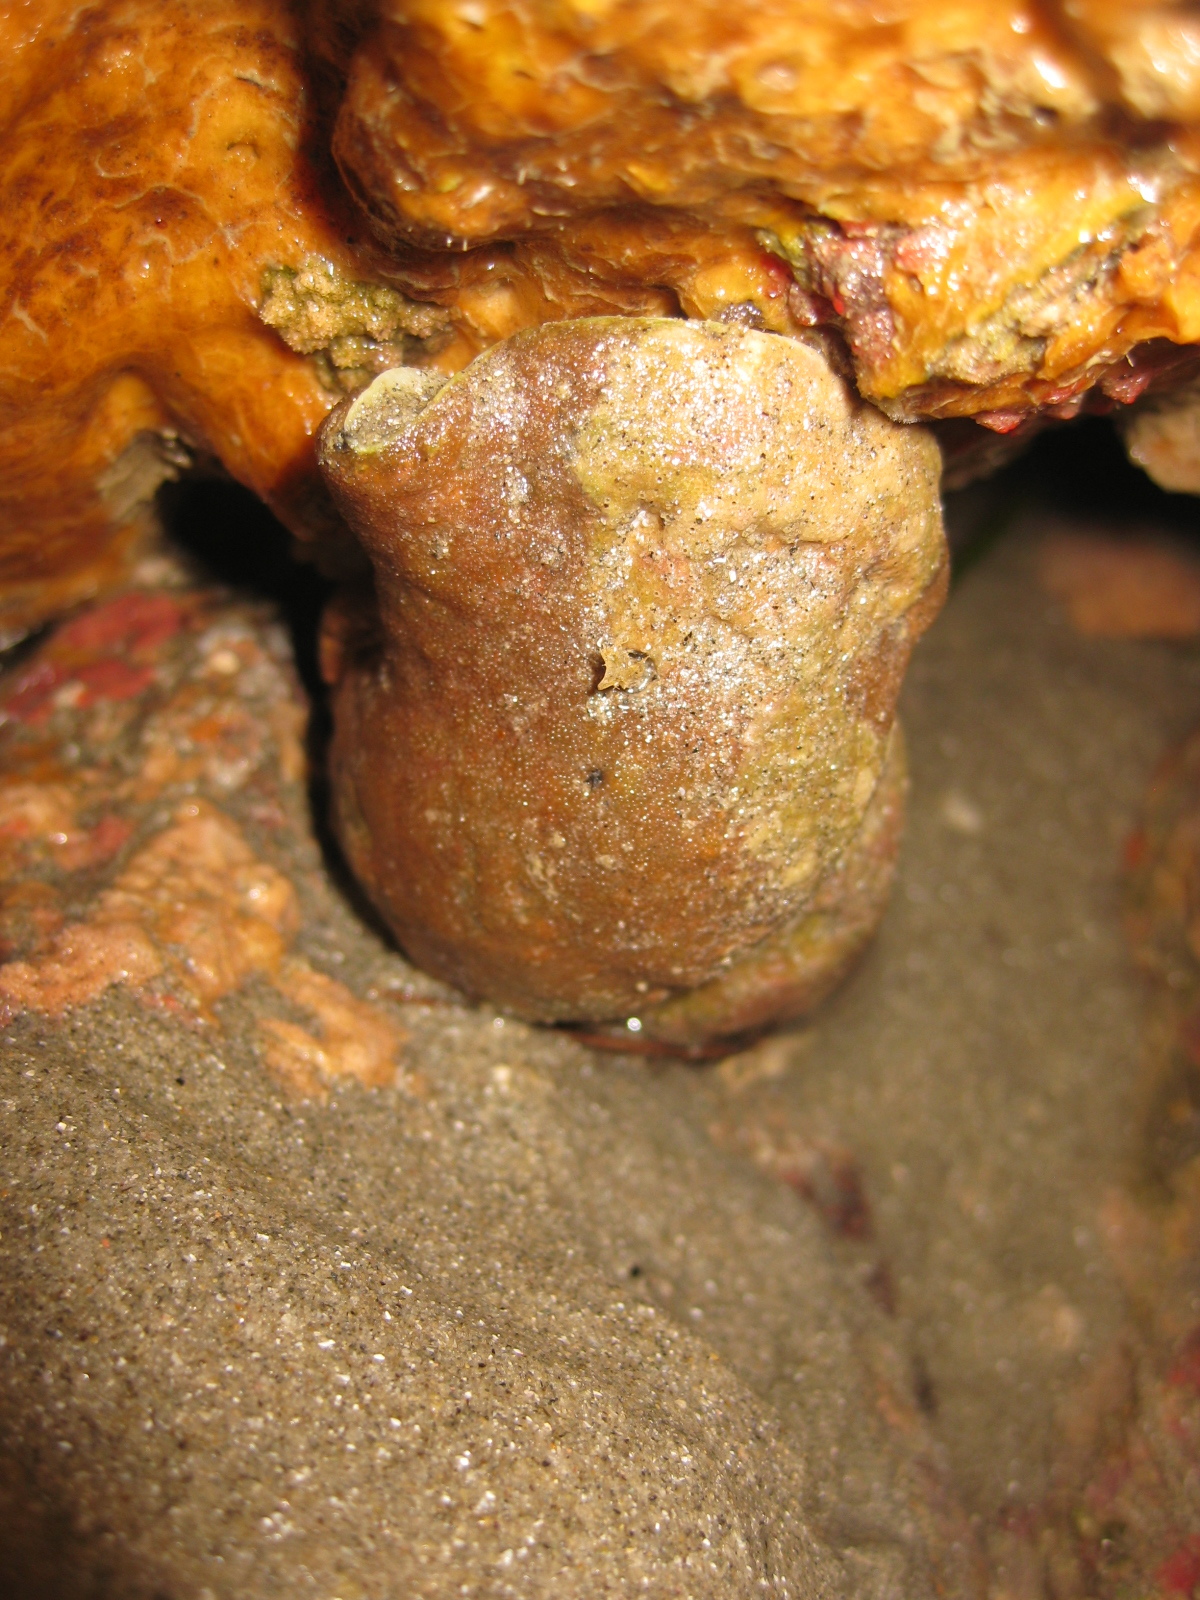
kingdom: Animalia
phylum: Mollusca
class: Gastropoda
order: Littorinimorpha
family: Ranellidae
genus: Ranella
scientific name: Ranella australasia
